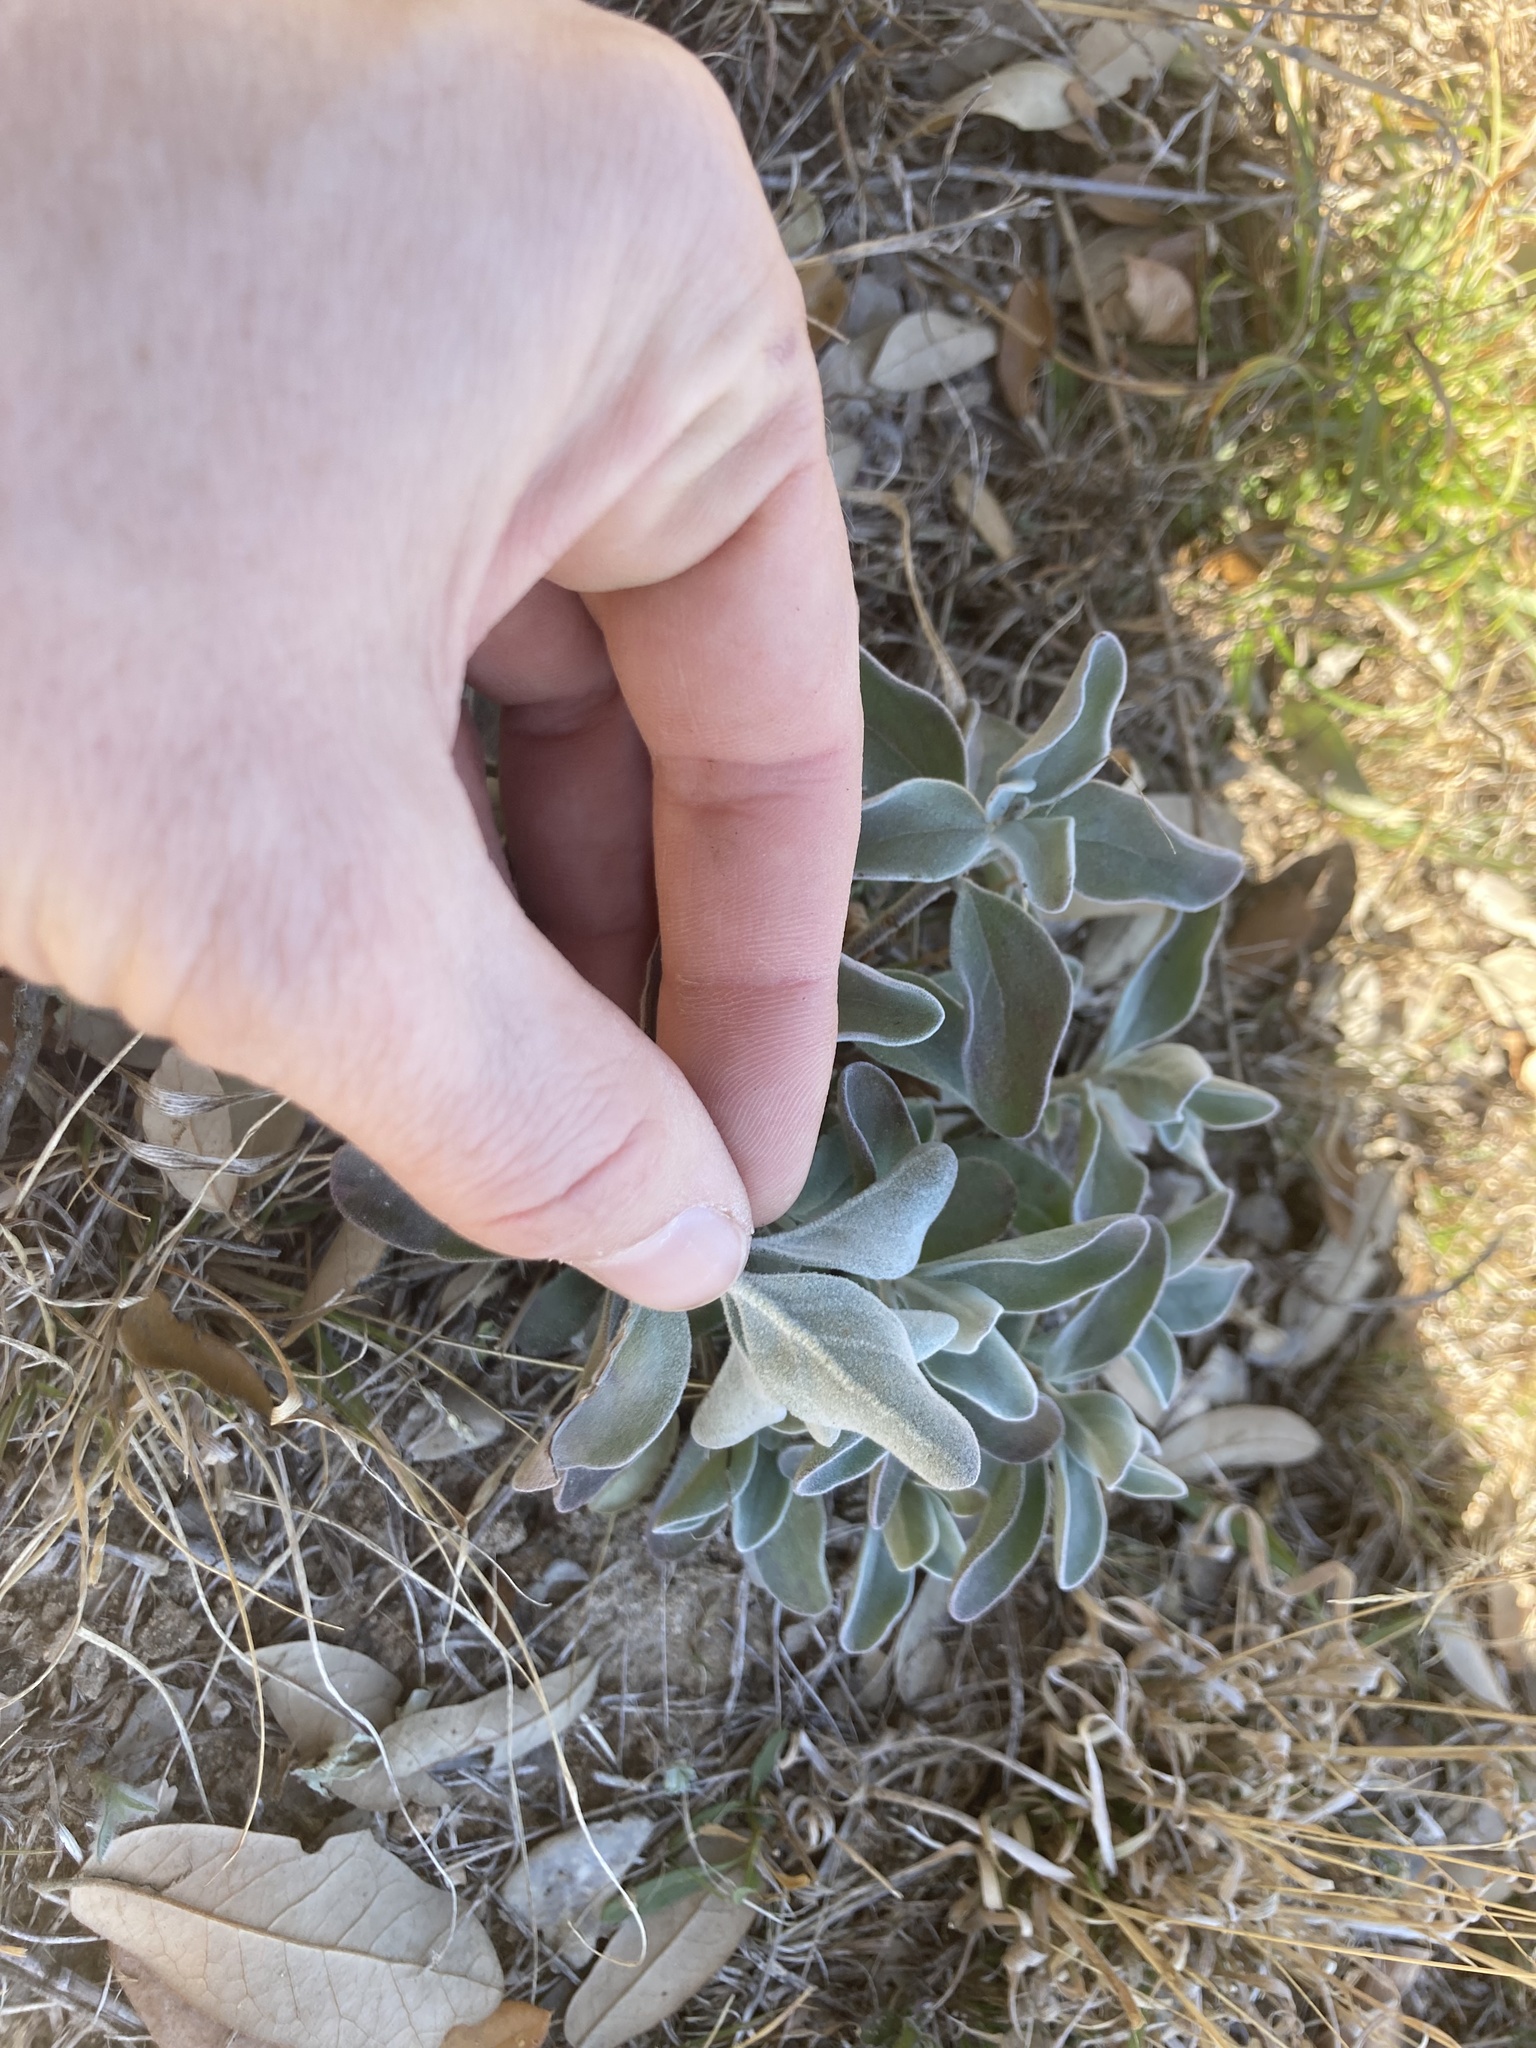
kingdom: Plantae
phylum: Tracheophyta
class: Magnoliopsida
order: Lamiales
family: Scrophulariaceae
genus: Leucophyllum
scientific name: Leucophyllum frutescens
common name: Texas silverleaf
